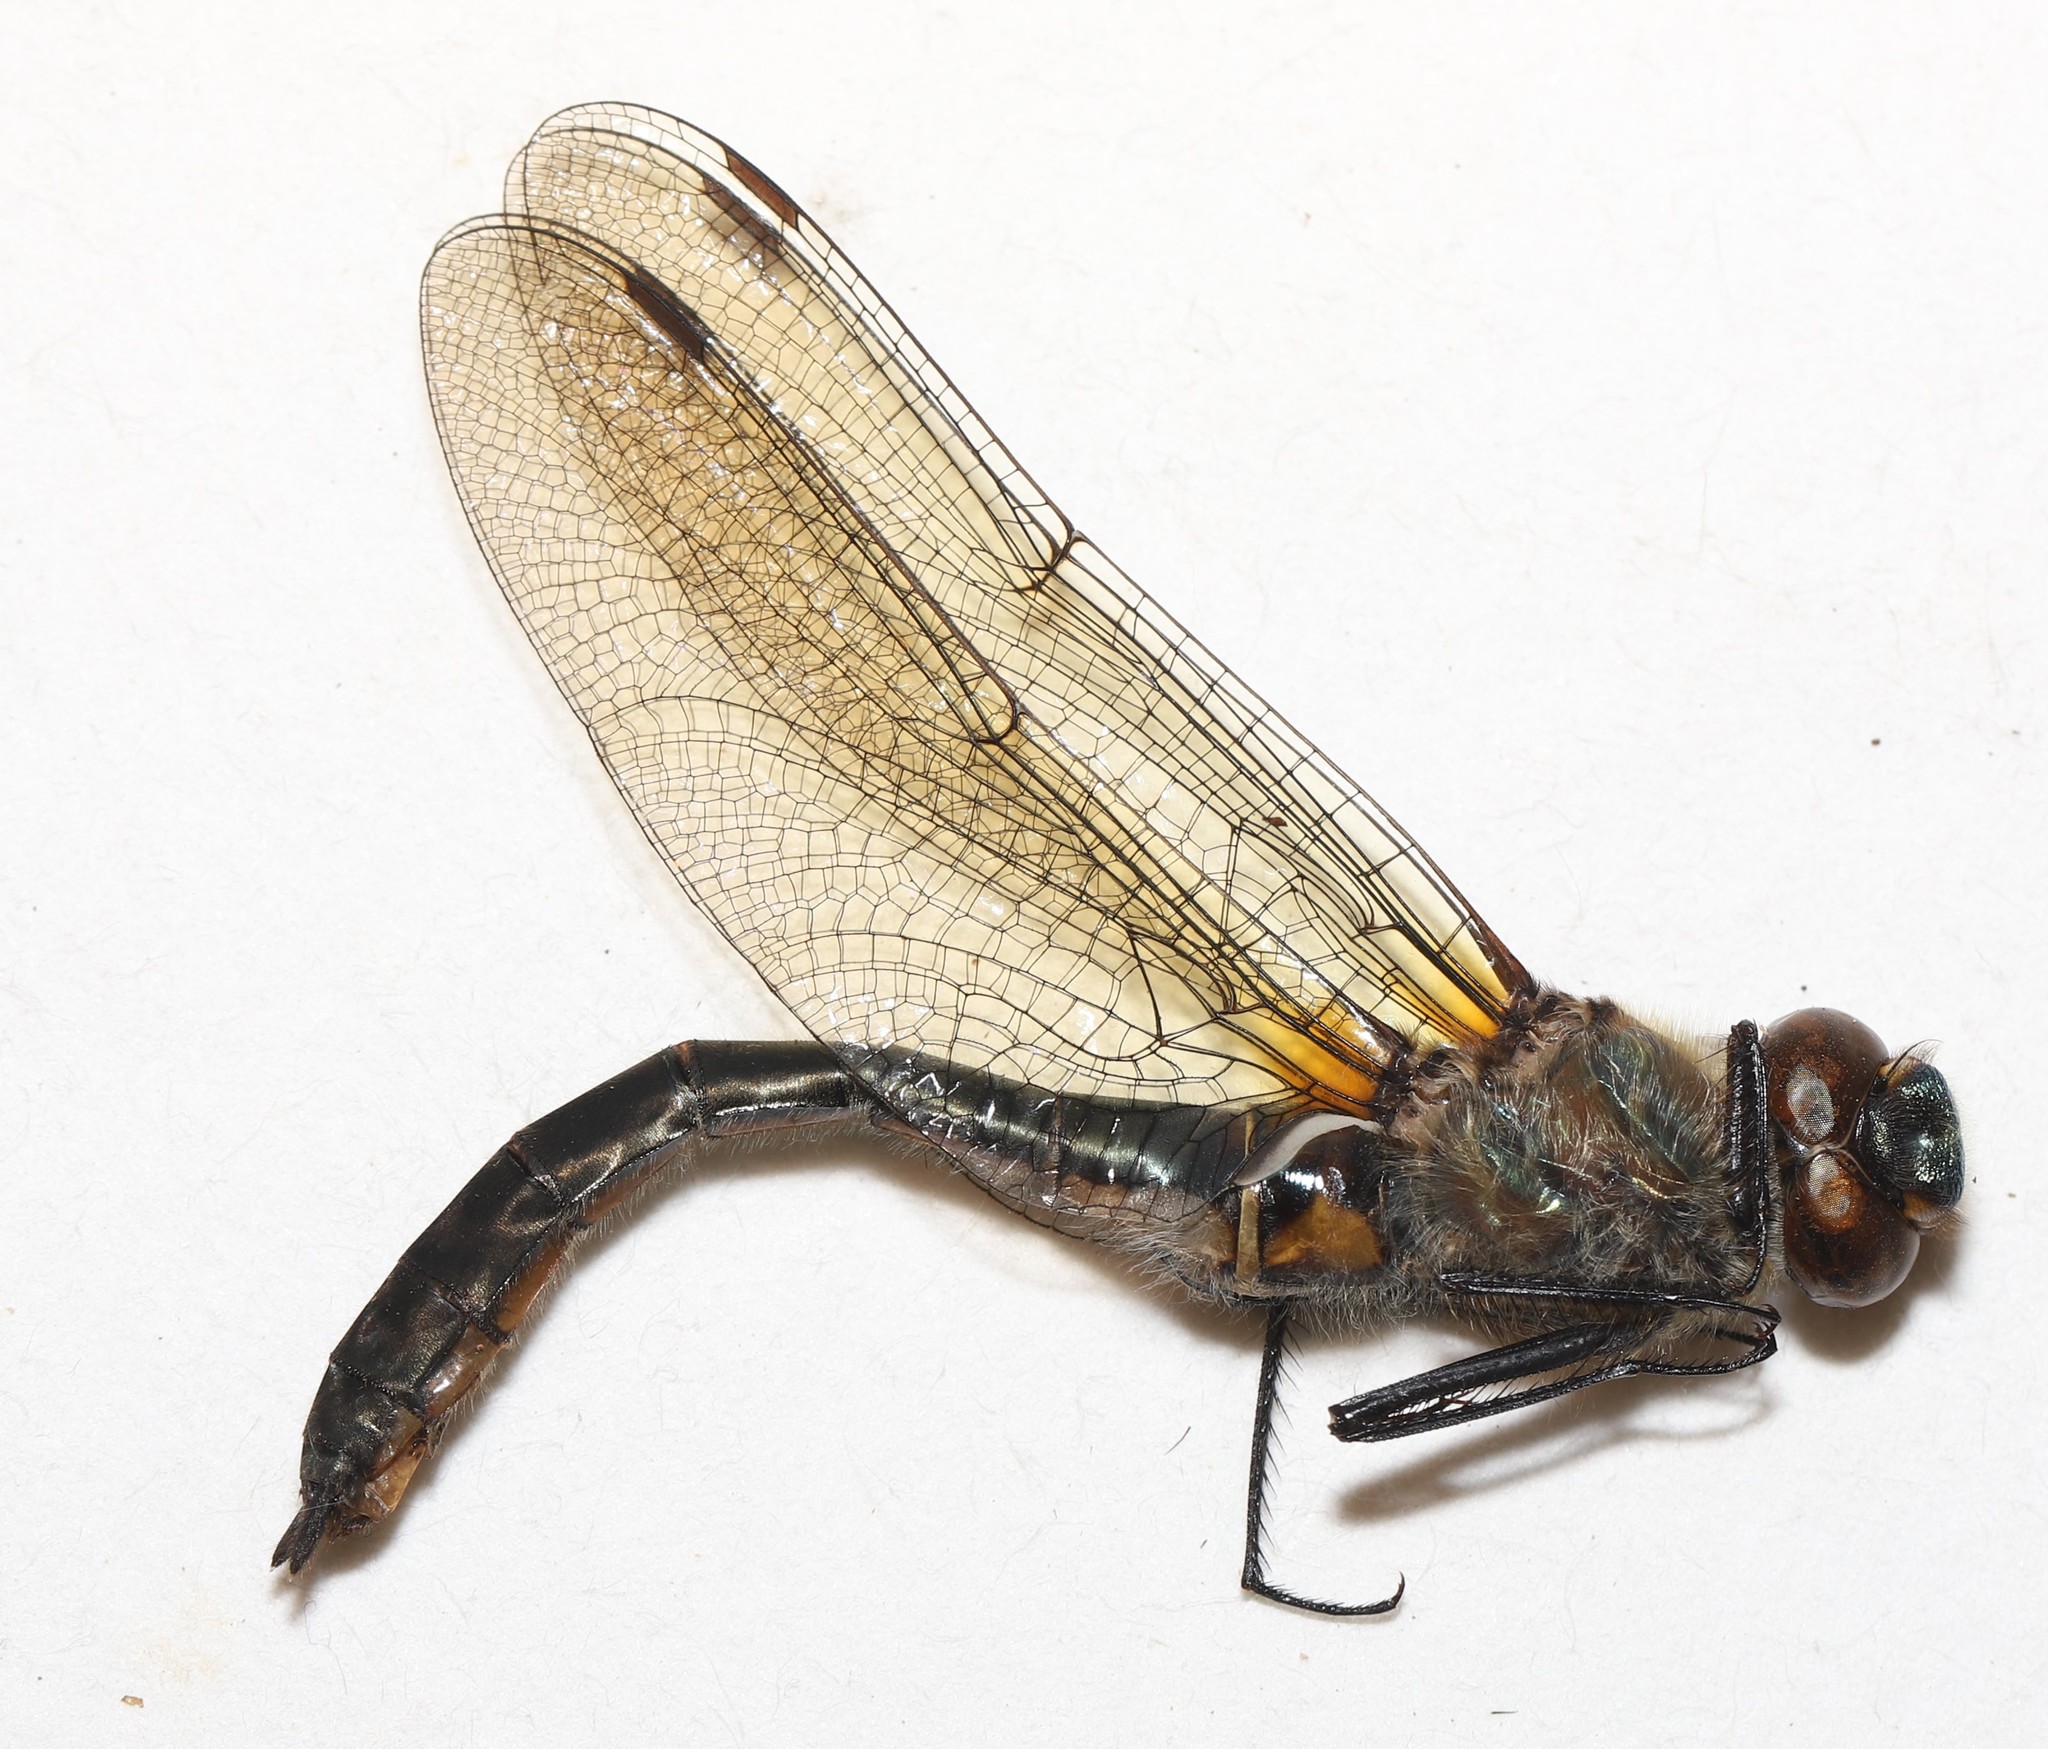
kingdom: Animalia
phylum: Arthropoda
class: Insecta
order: Odonata
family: Corduliidae
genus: Cordulia
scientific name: Cordulia shurtleffii
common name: American emerald
